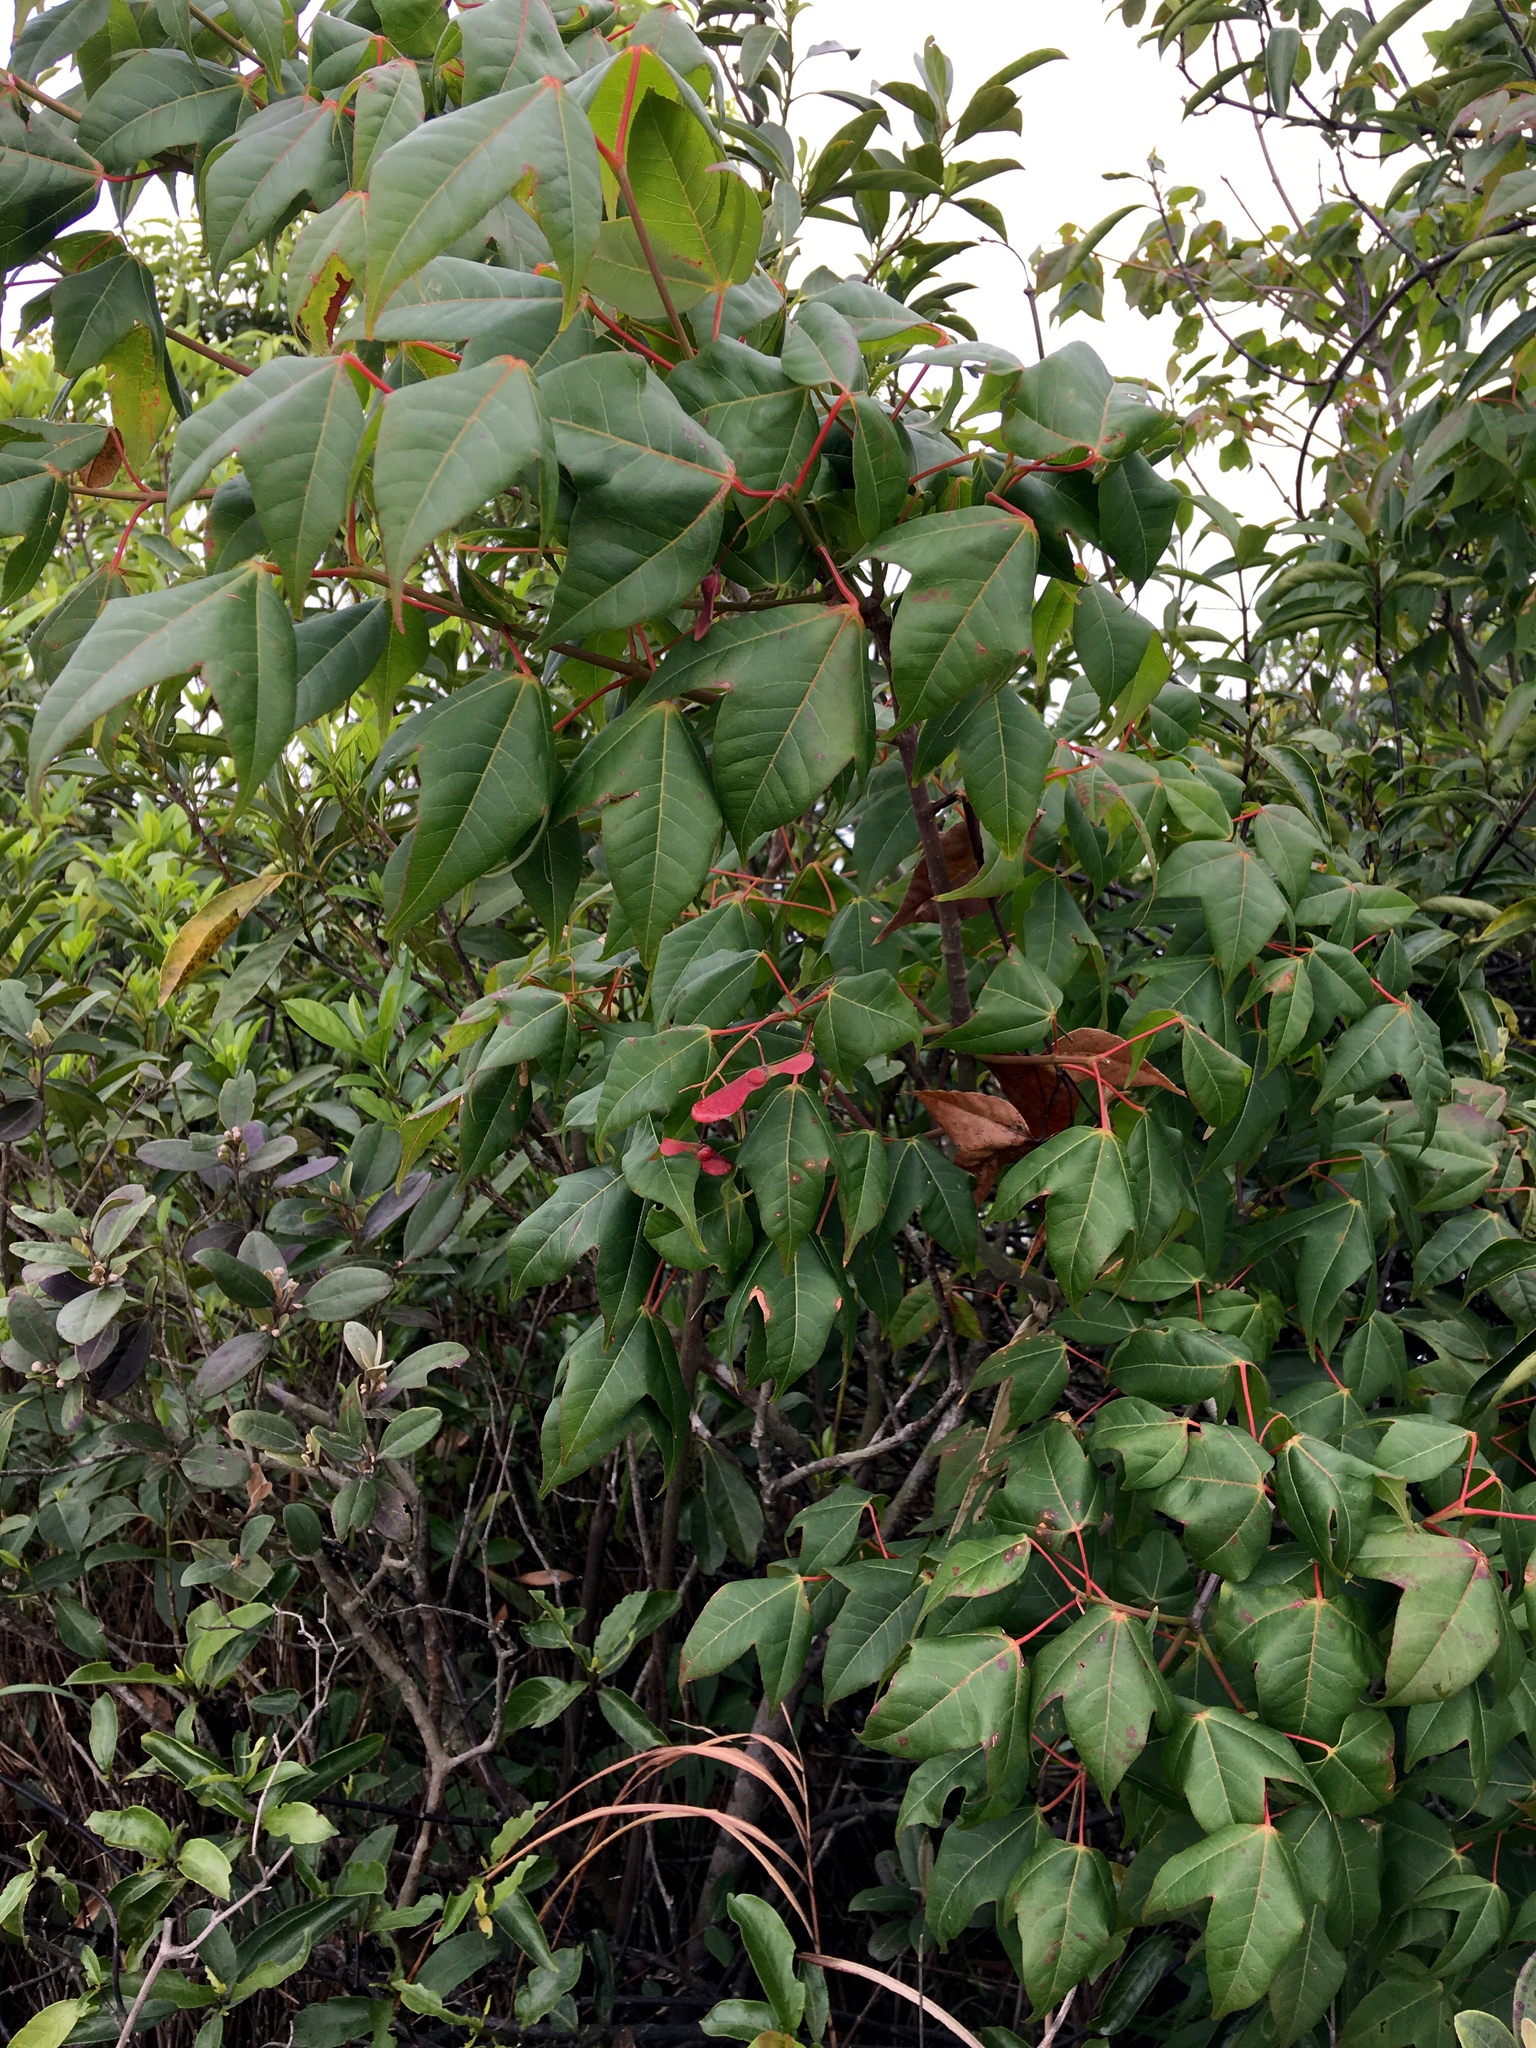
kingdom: Plantae
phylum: Tracheophyta
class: Magnoliopsida
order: Sapindales
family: Sapindaceae
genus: Acer
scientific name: Acer tutcheri
